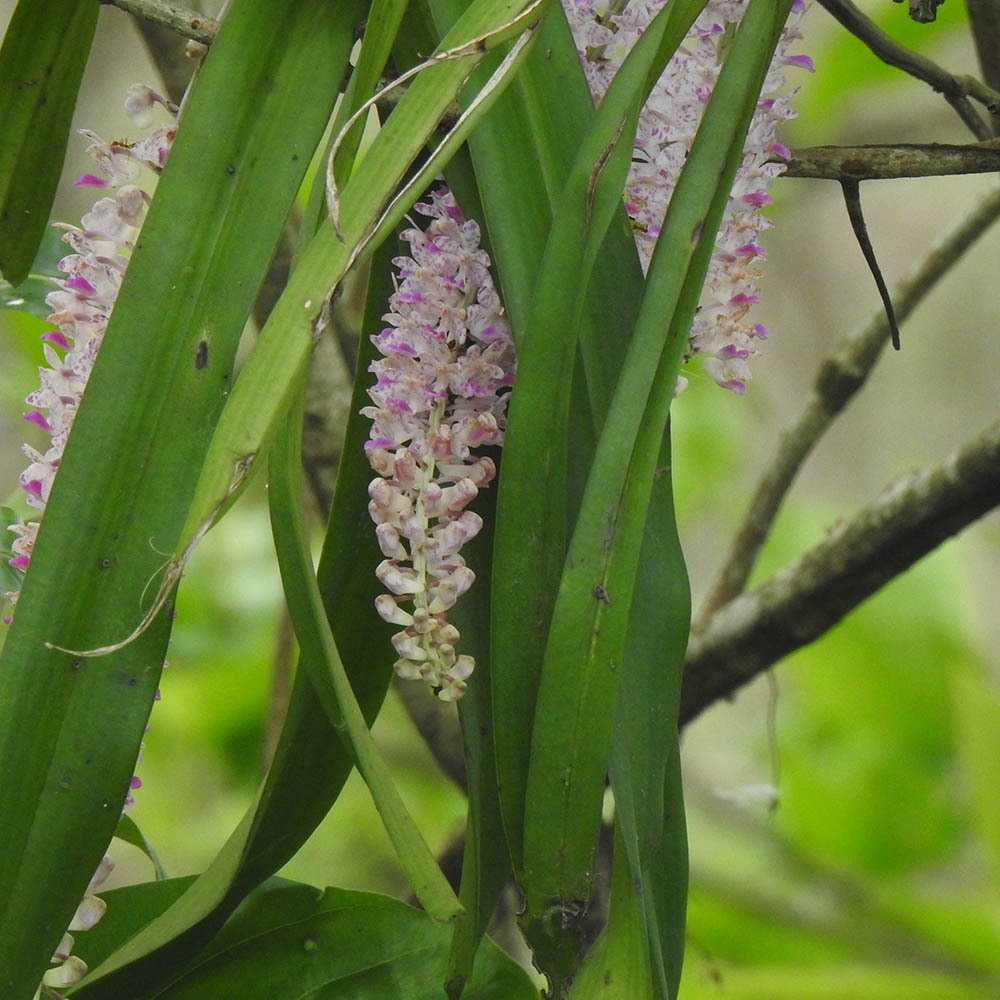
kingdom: Plantae
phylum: Tracheophyta
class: Liliopsida
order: Asparagales
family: Orchidaceae
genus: Rhynchostylis
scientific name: Rhynchostylis retusa
